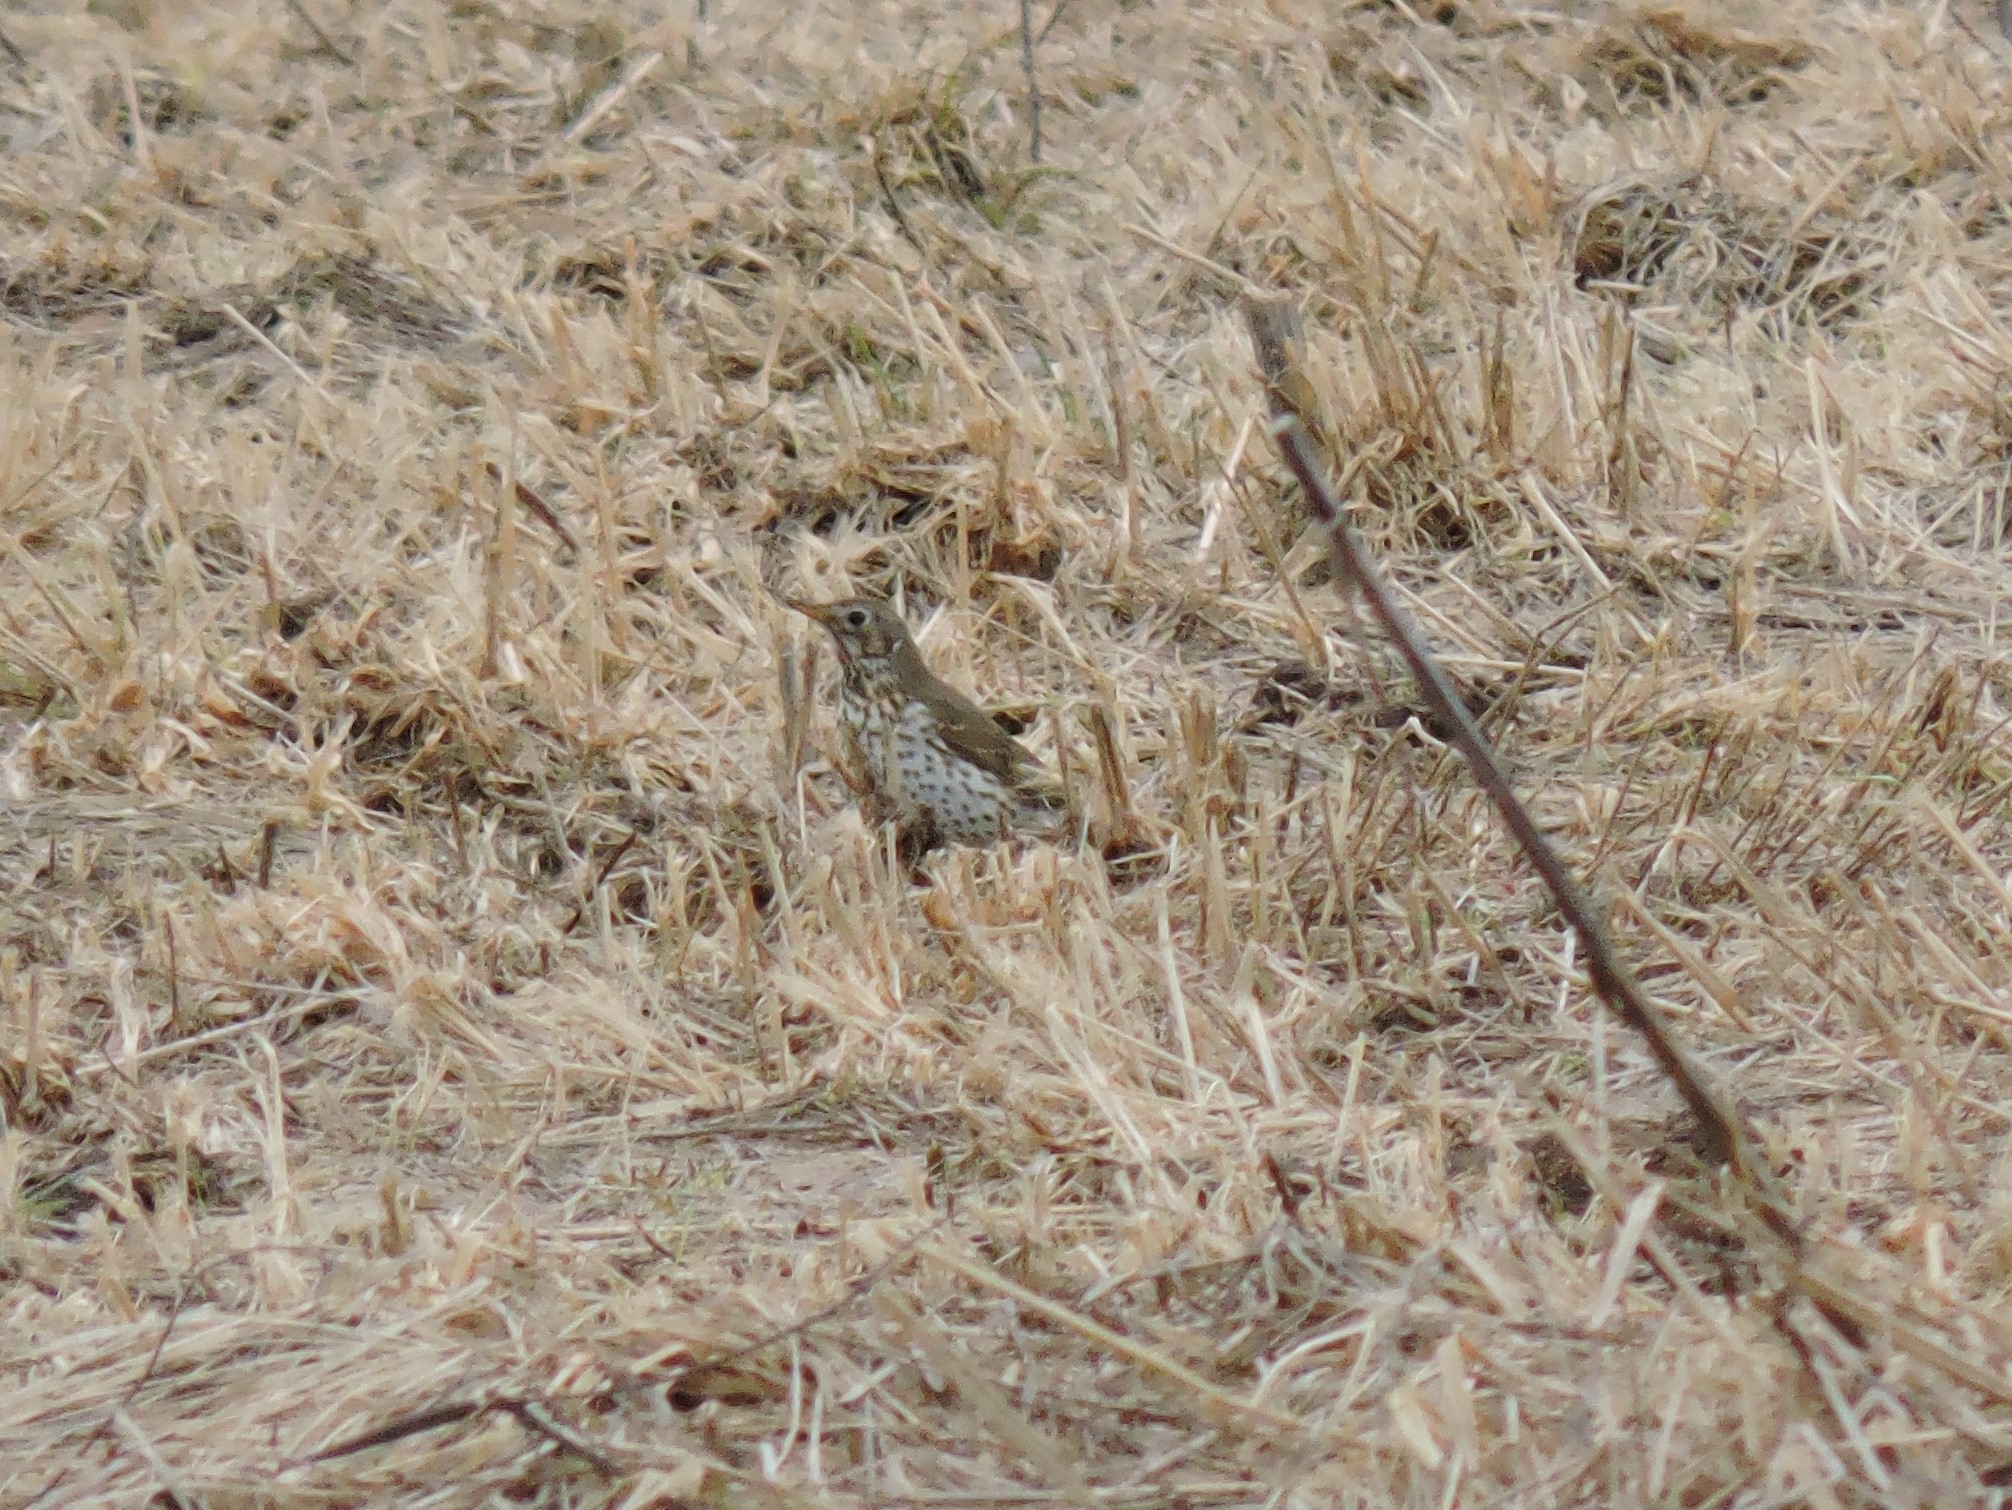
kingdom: Animalia
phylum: Chordata
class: Aves
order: Passeriformes
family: Turdidae
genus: Turdus
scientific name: Turdus philomelos
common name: Song thrush
